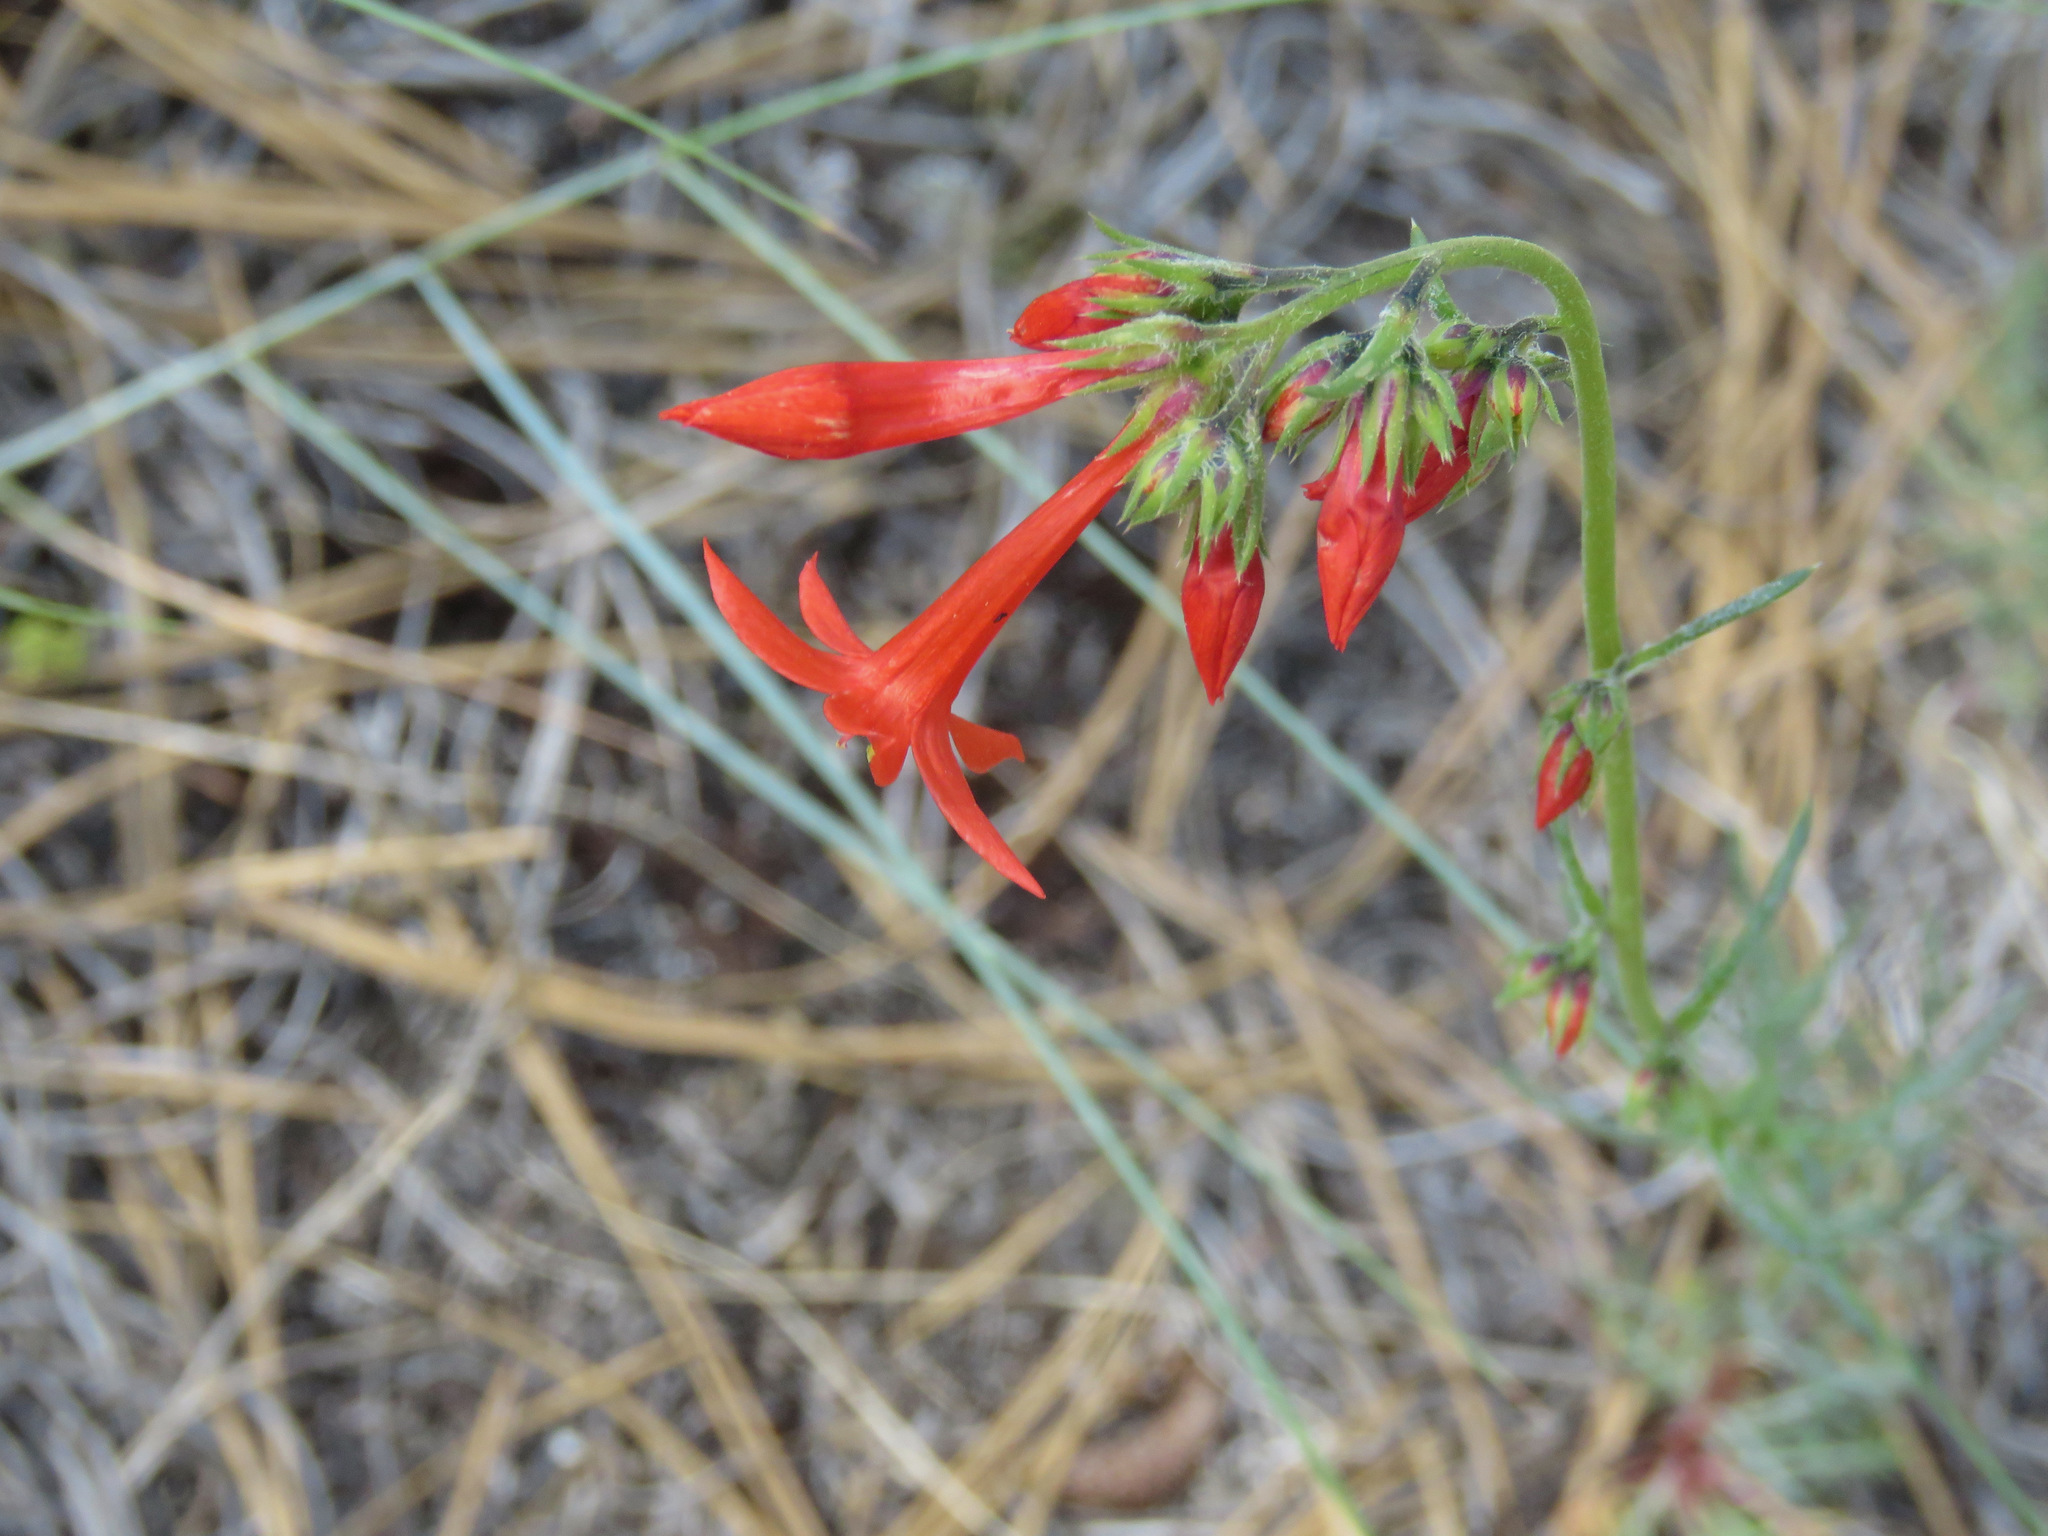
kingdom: Plantae
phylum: Tracheophyta
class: Magnoliopsida
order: Ericales
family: Polemoniaceae
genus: Ipomopsis
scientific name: Ipomopsis aggregata
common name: Scarlet gilia
